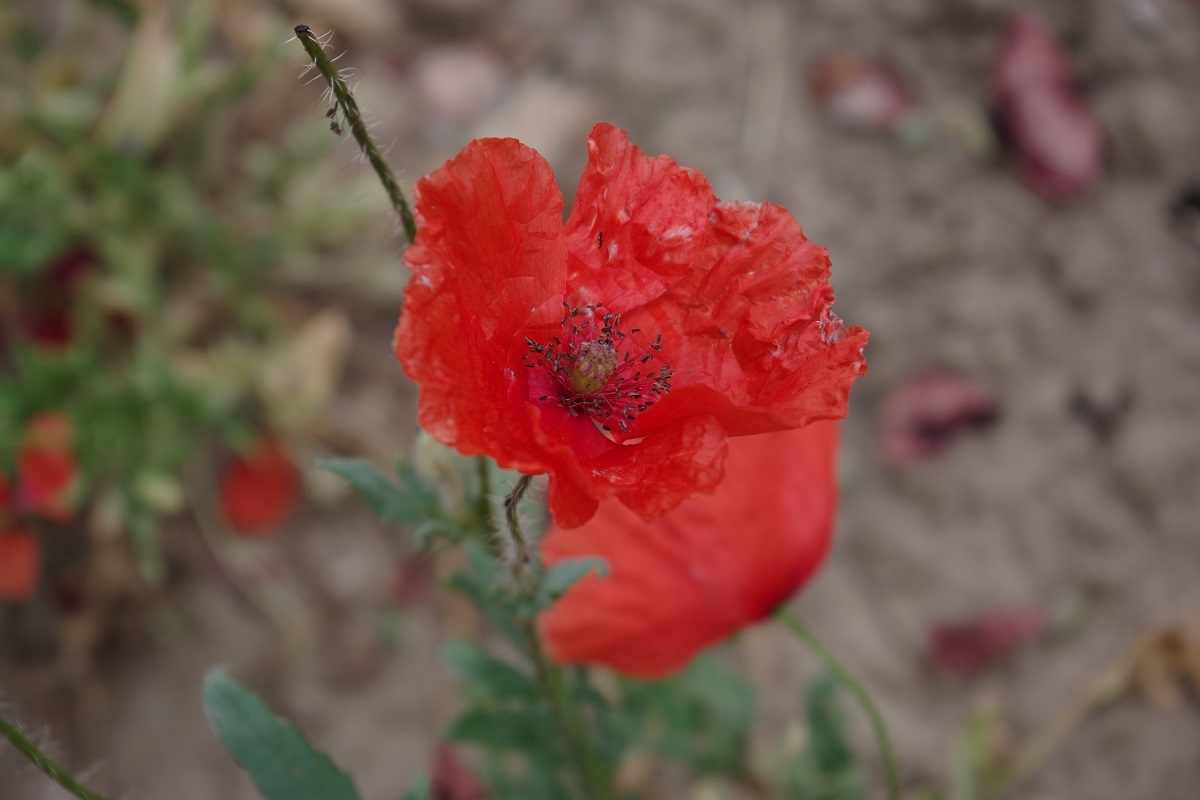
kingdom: Plantae
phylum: Tracheophyta
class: Magnoliopsida
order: Ranunculales
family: Papaveraceae
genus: Papaver
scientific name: Papaver rhoeas
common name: Corn poppy
